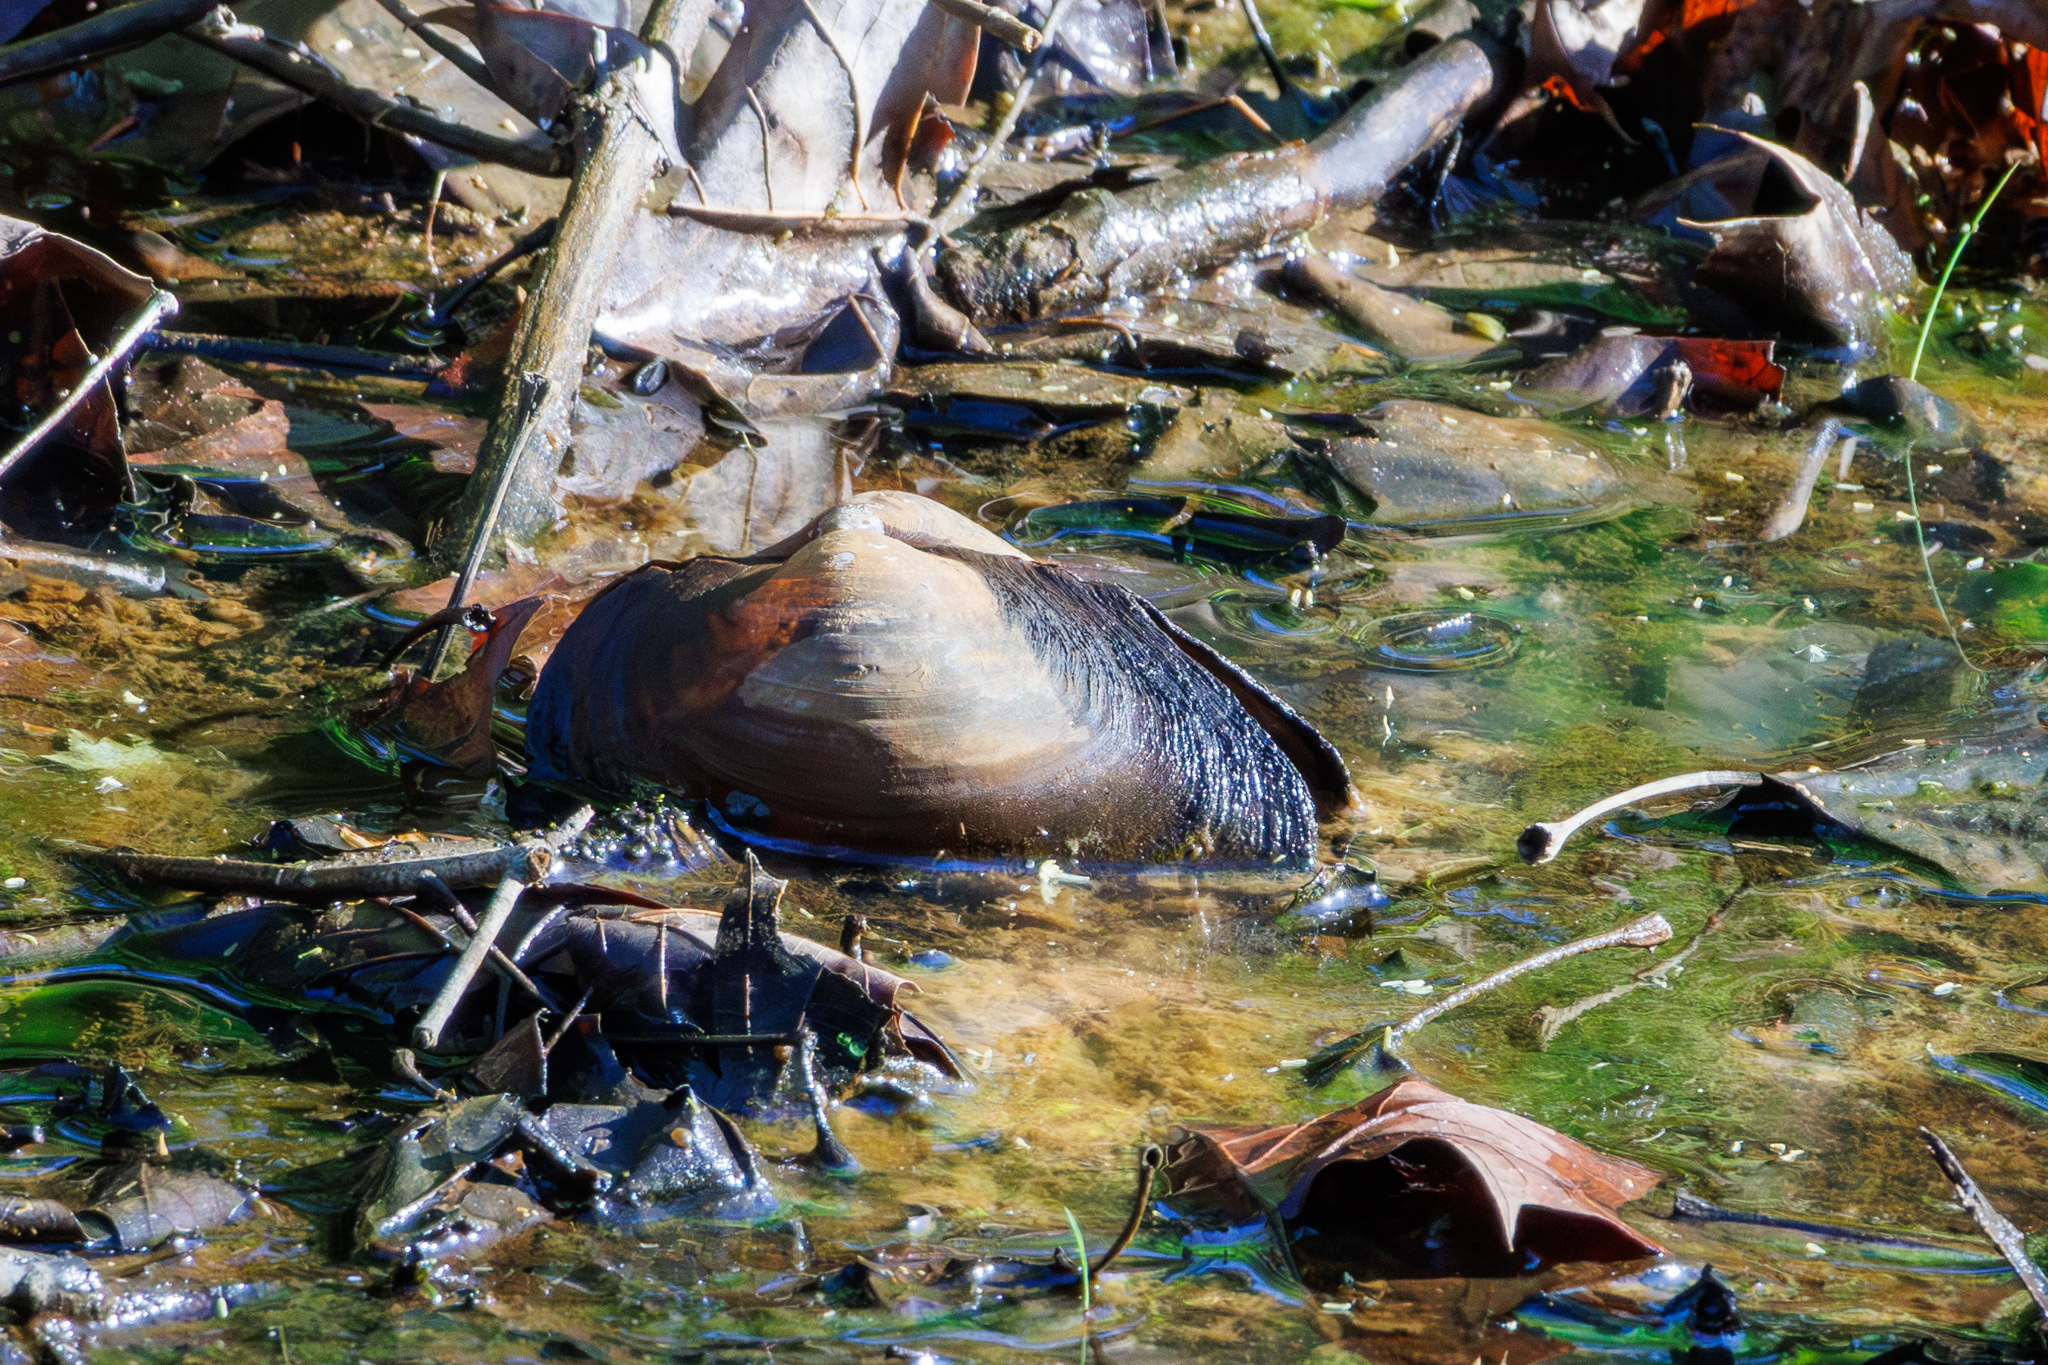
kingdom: Animalia
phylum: Mollusca
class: Bivalvia
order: Unionida
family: Unionidae
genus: Pyganodon
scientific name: Pyganodon grandis
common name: Giant floater
